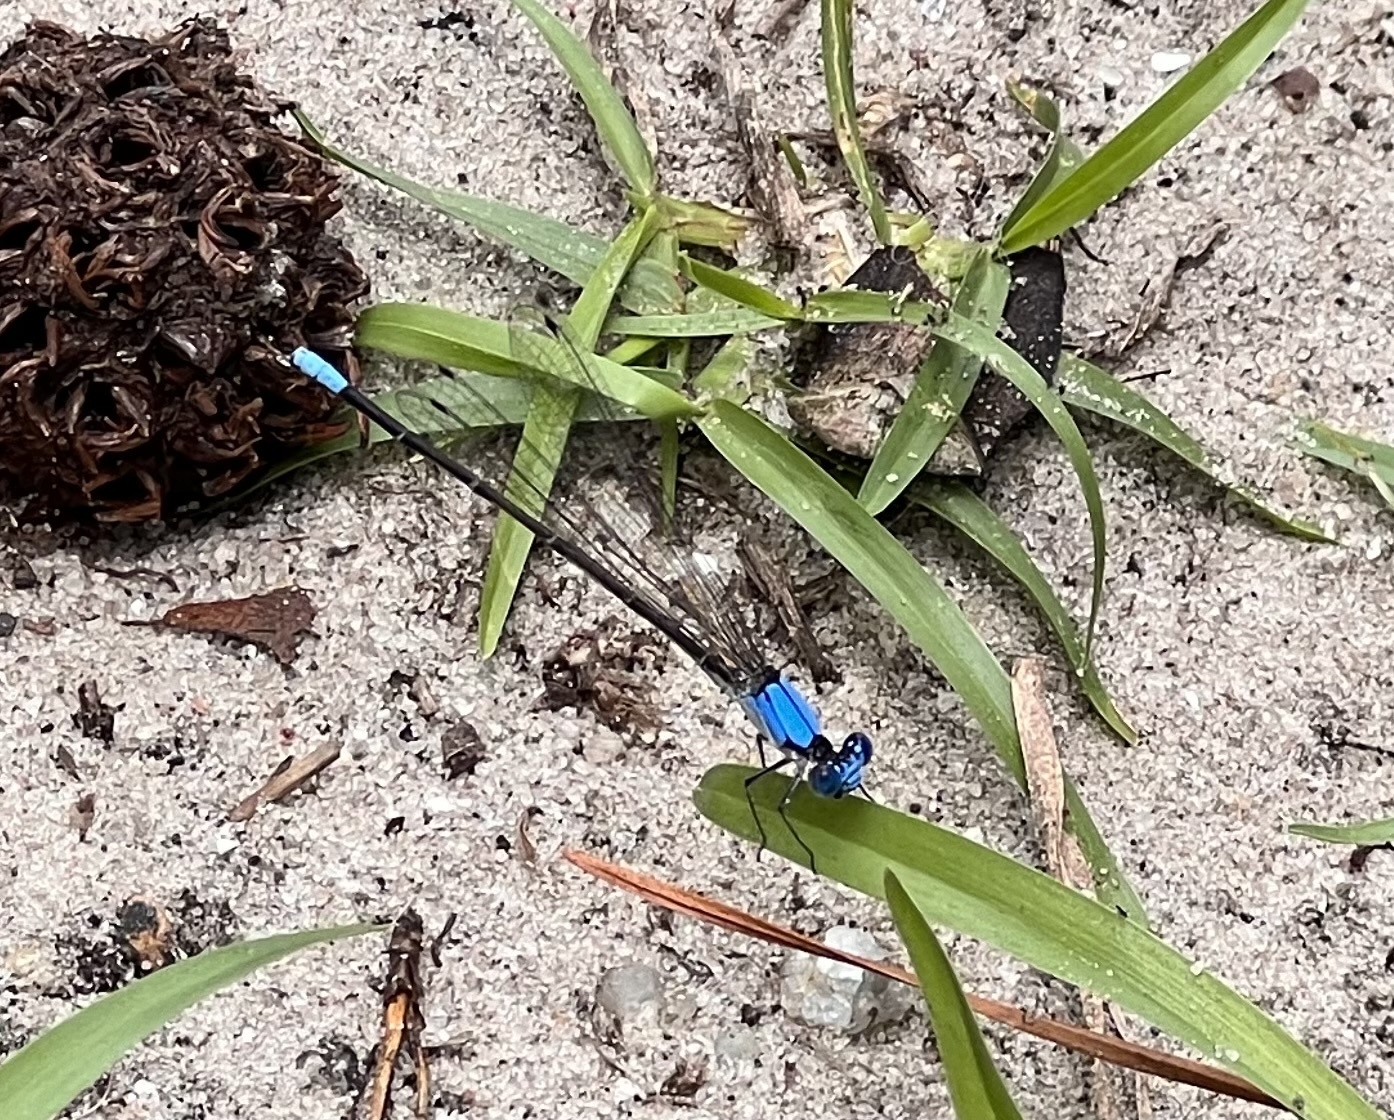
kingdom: Animalia
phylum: Arthropoda
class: Insecta
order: Odonata
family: Coenagrionidae
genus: Argia
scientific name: Argia apicalis
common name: Blue-fronted dancer
